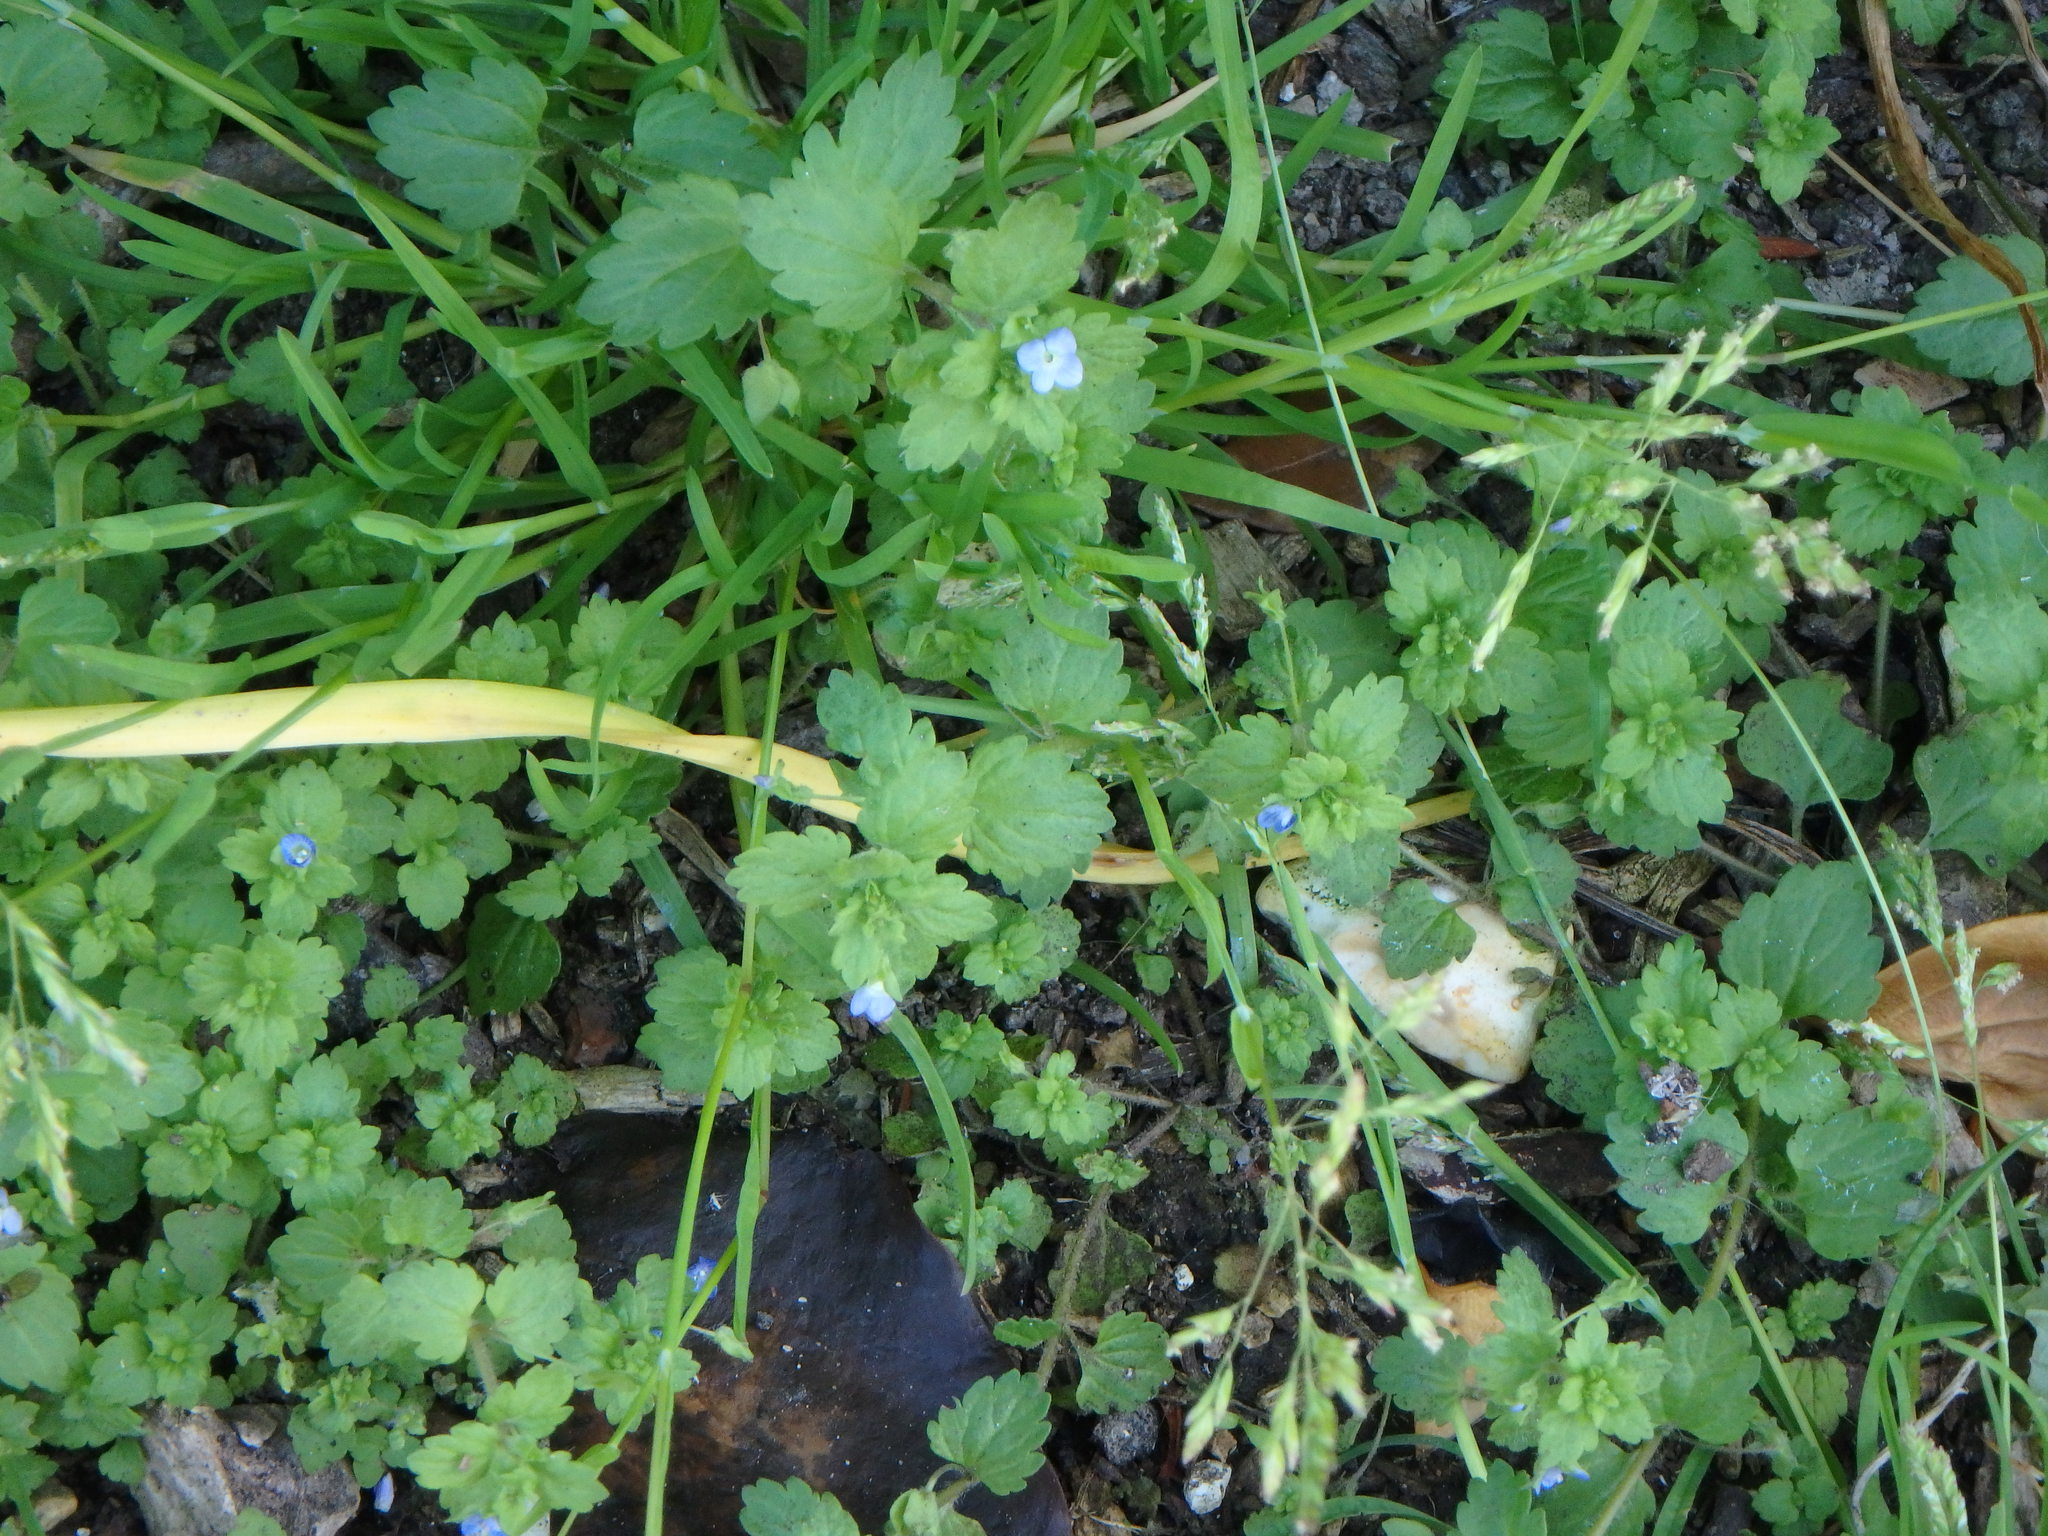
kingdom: Plantae
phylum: Tracheophyta
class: Magnoliopsida
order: Lamiales
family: Plantaginaceae
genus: Veronica
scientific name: Veronica persica
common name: Common field-speedwell
